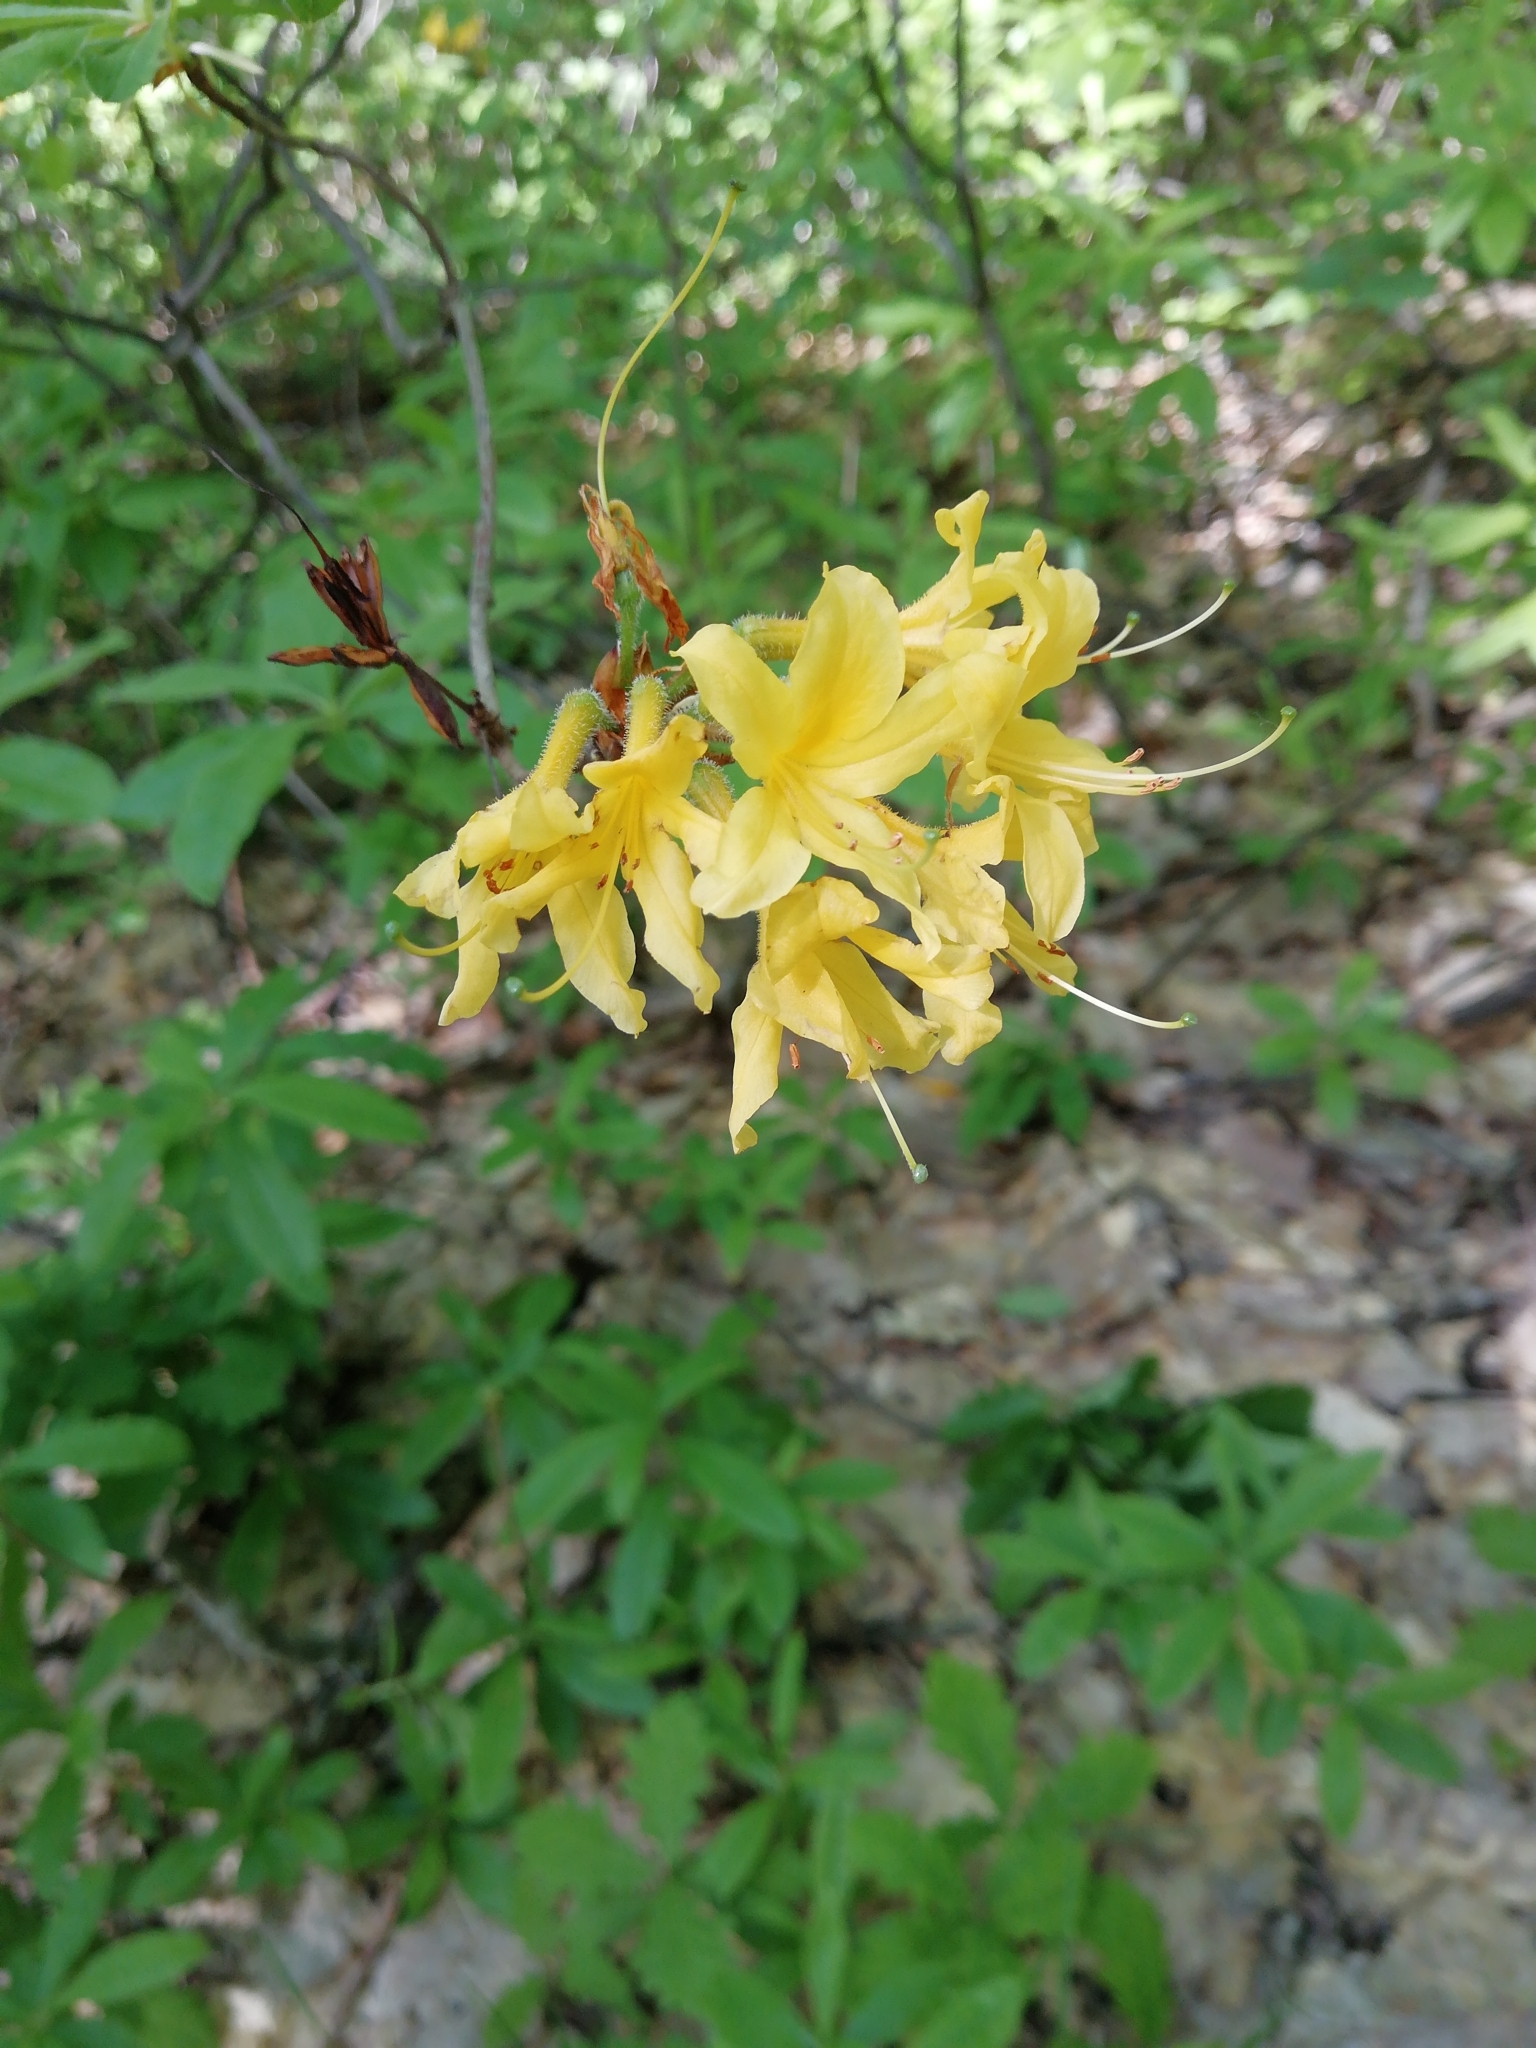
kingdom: Plantae
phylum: Tracheophyta
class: Magnoliopsida
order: Ericales
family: Ericaceae
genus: Rhododendron
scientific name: Rhododendron luteum
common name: Yellow azalea
